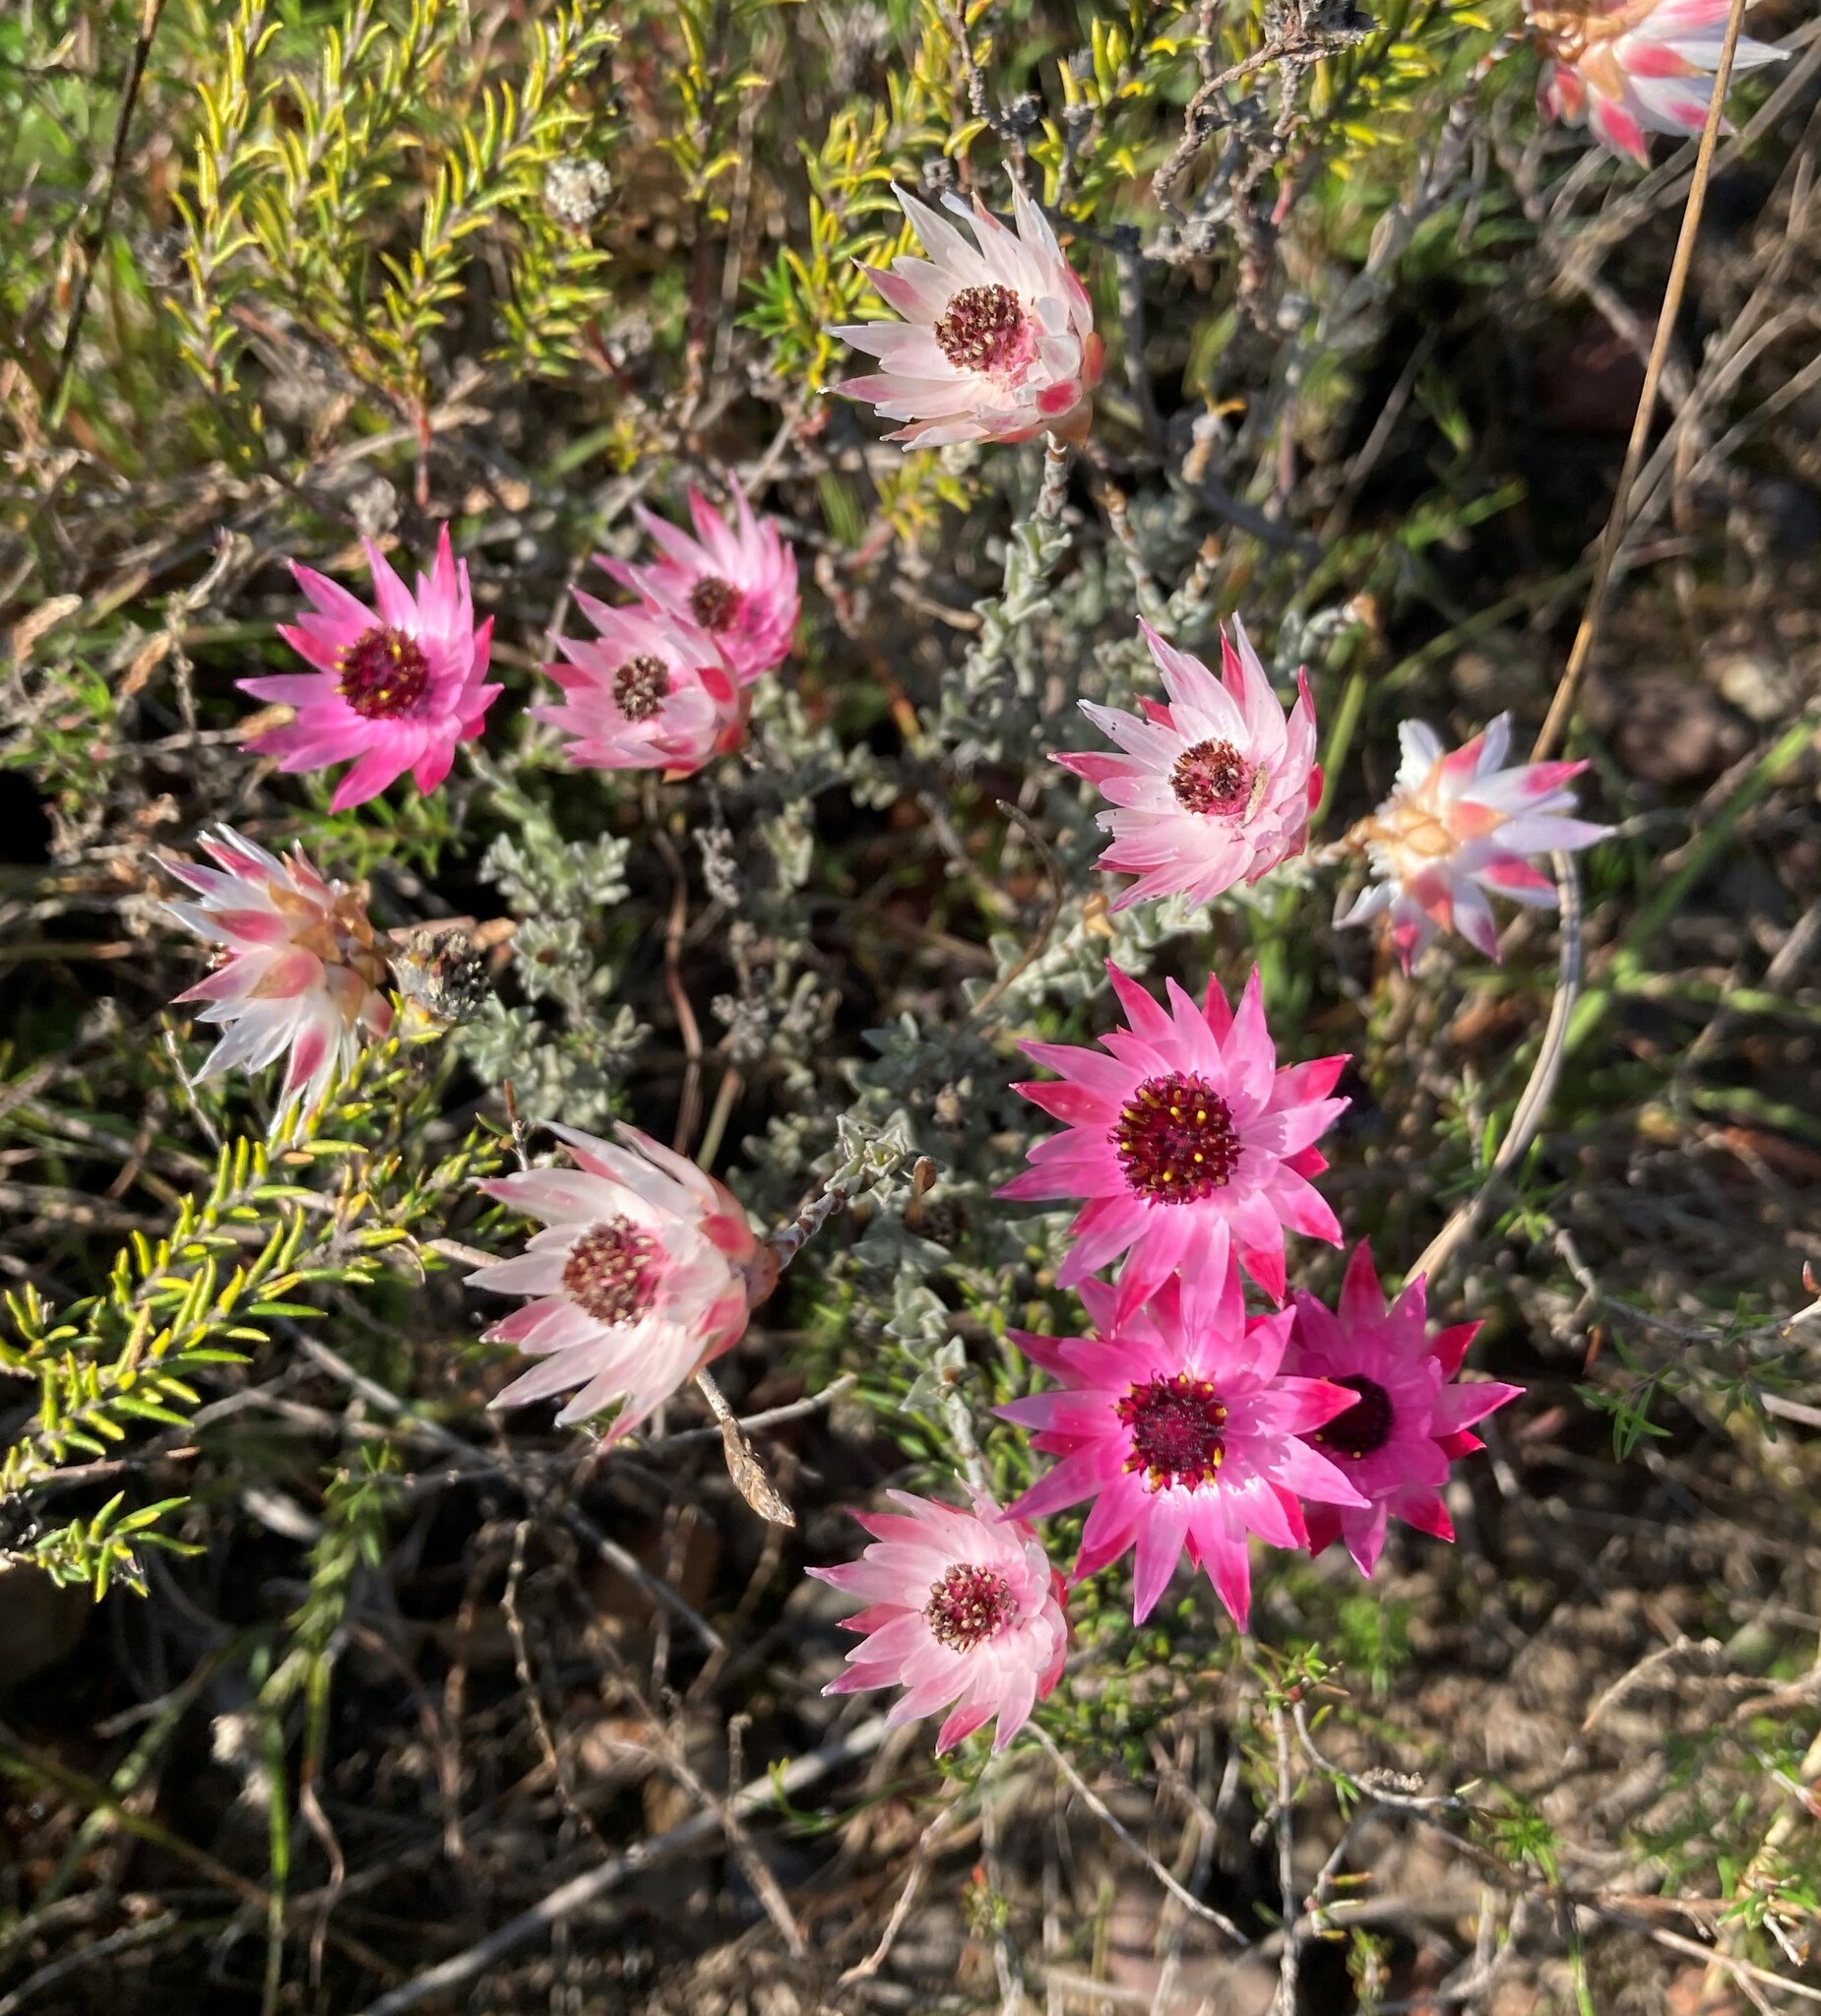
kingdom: Plantae
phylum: Tracheophyta
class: Magnoliopsida
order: Asterales
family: Asteraceae
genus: Syncarpha
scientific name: Syncarpha canescens
